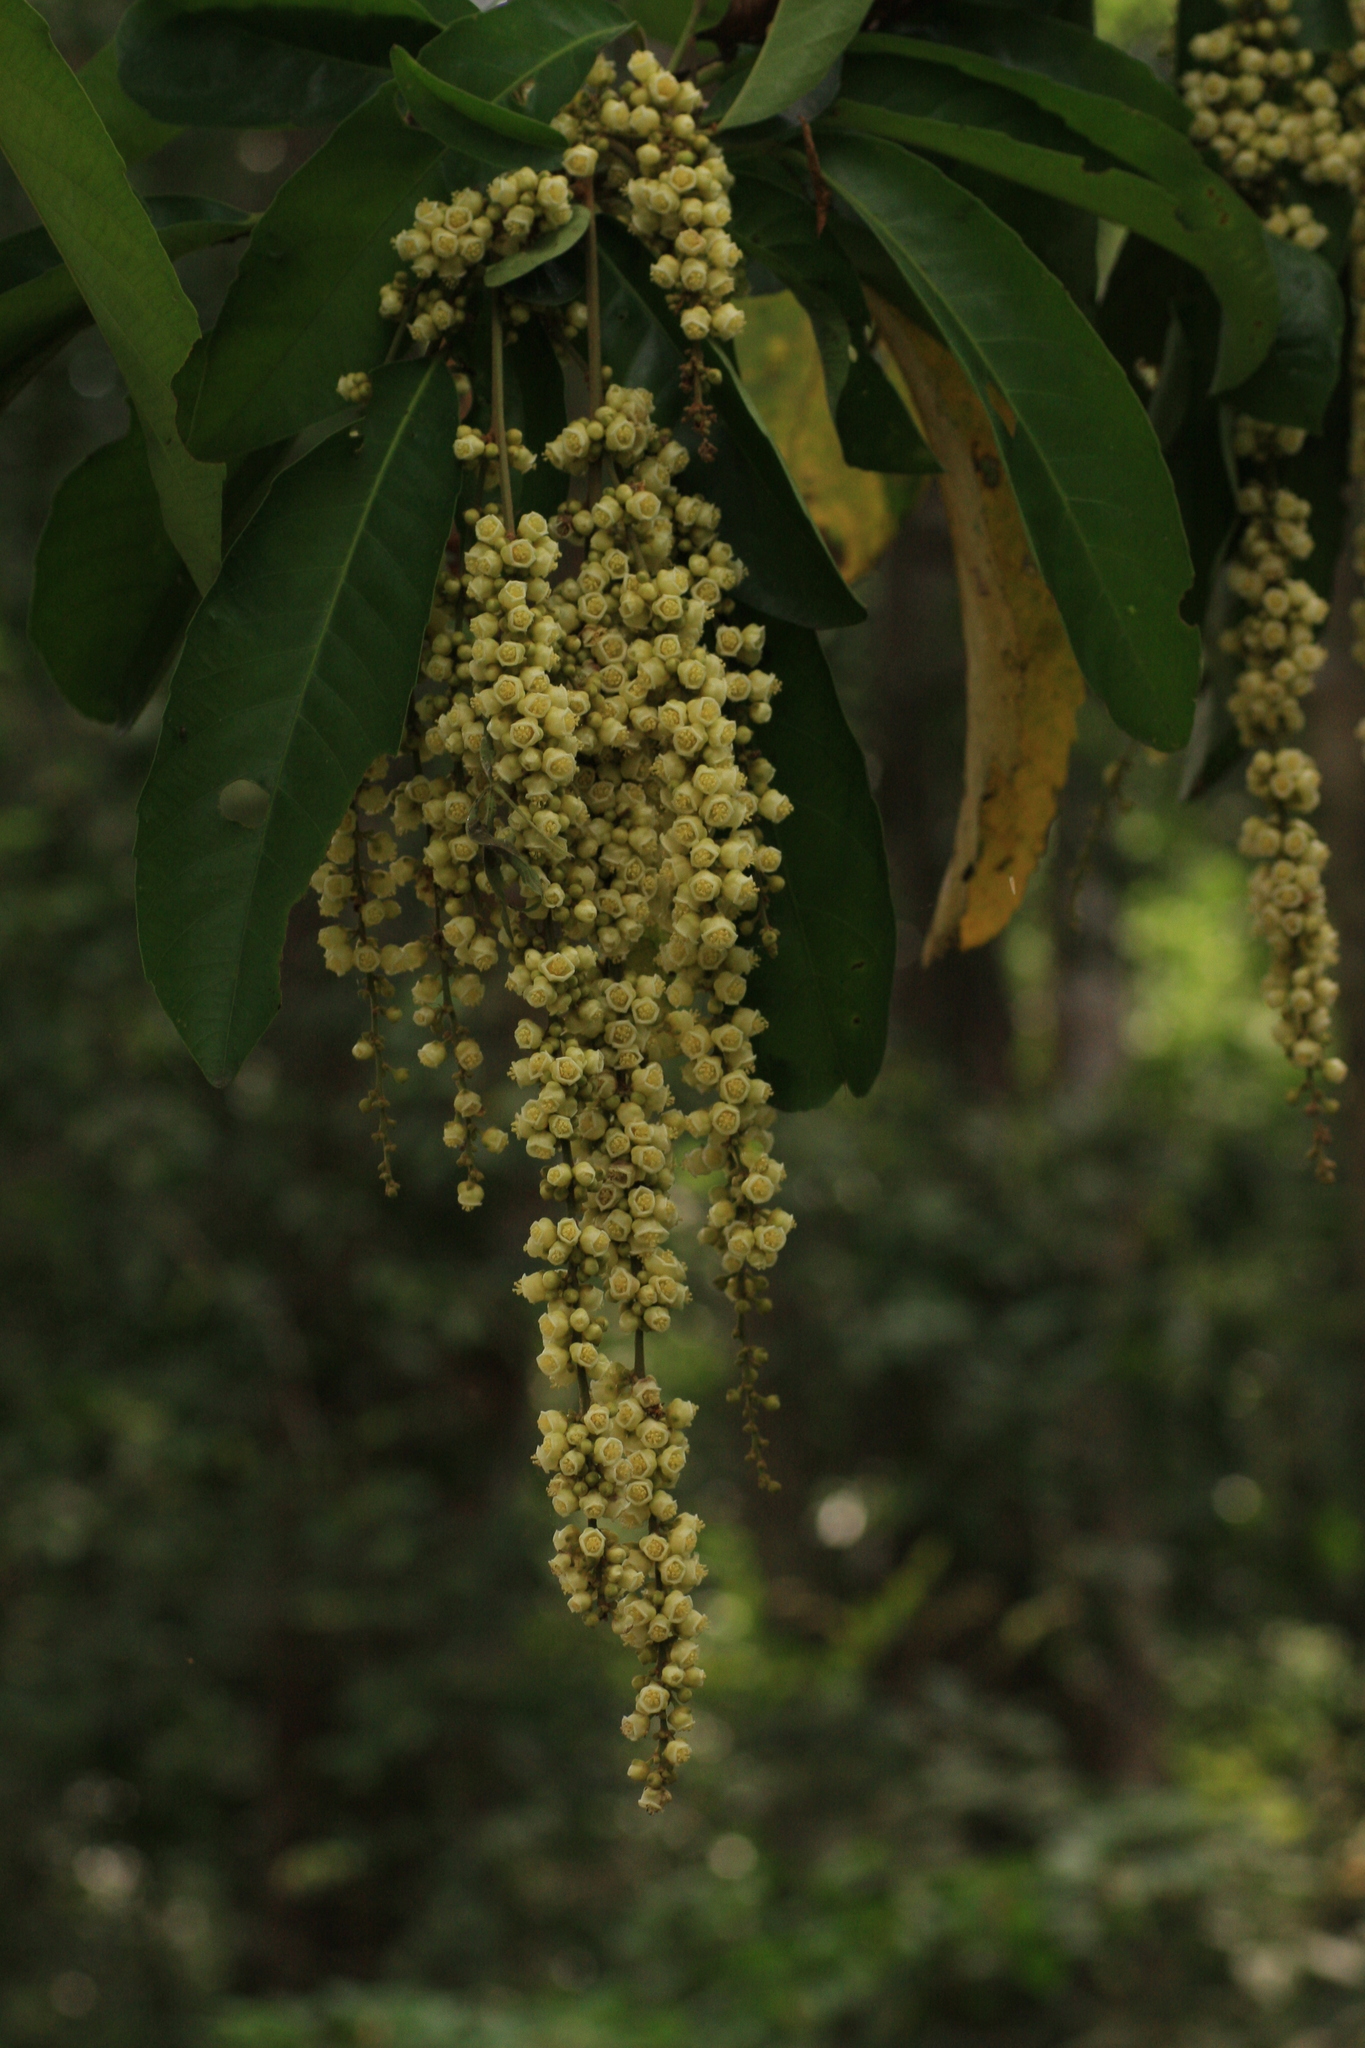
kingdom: Plantae
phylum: Tracheophyta
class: Magnoliopsida
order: Malpighiales
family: Euphorbiaceae
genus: Paracroton
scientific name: Paracroton pendulus
